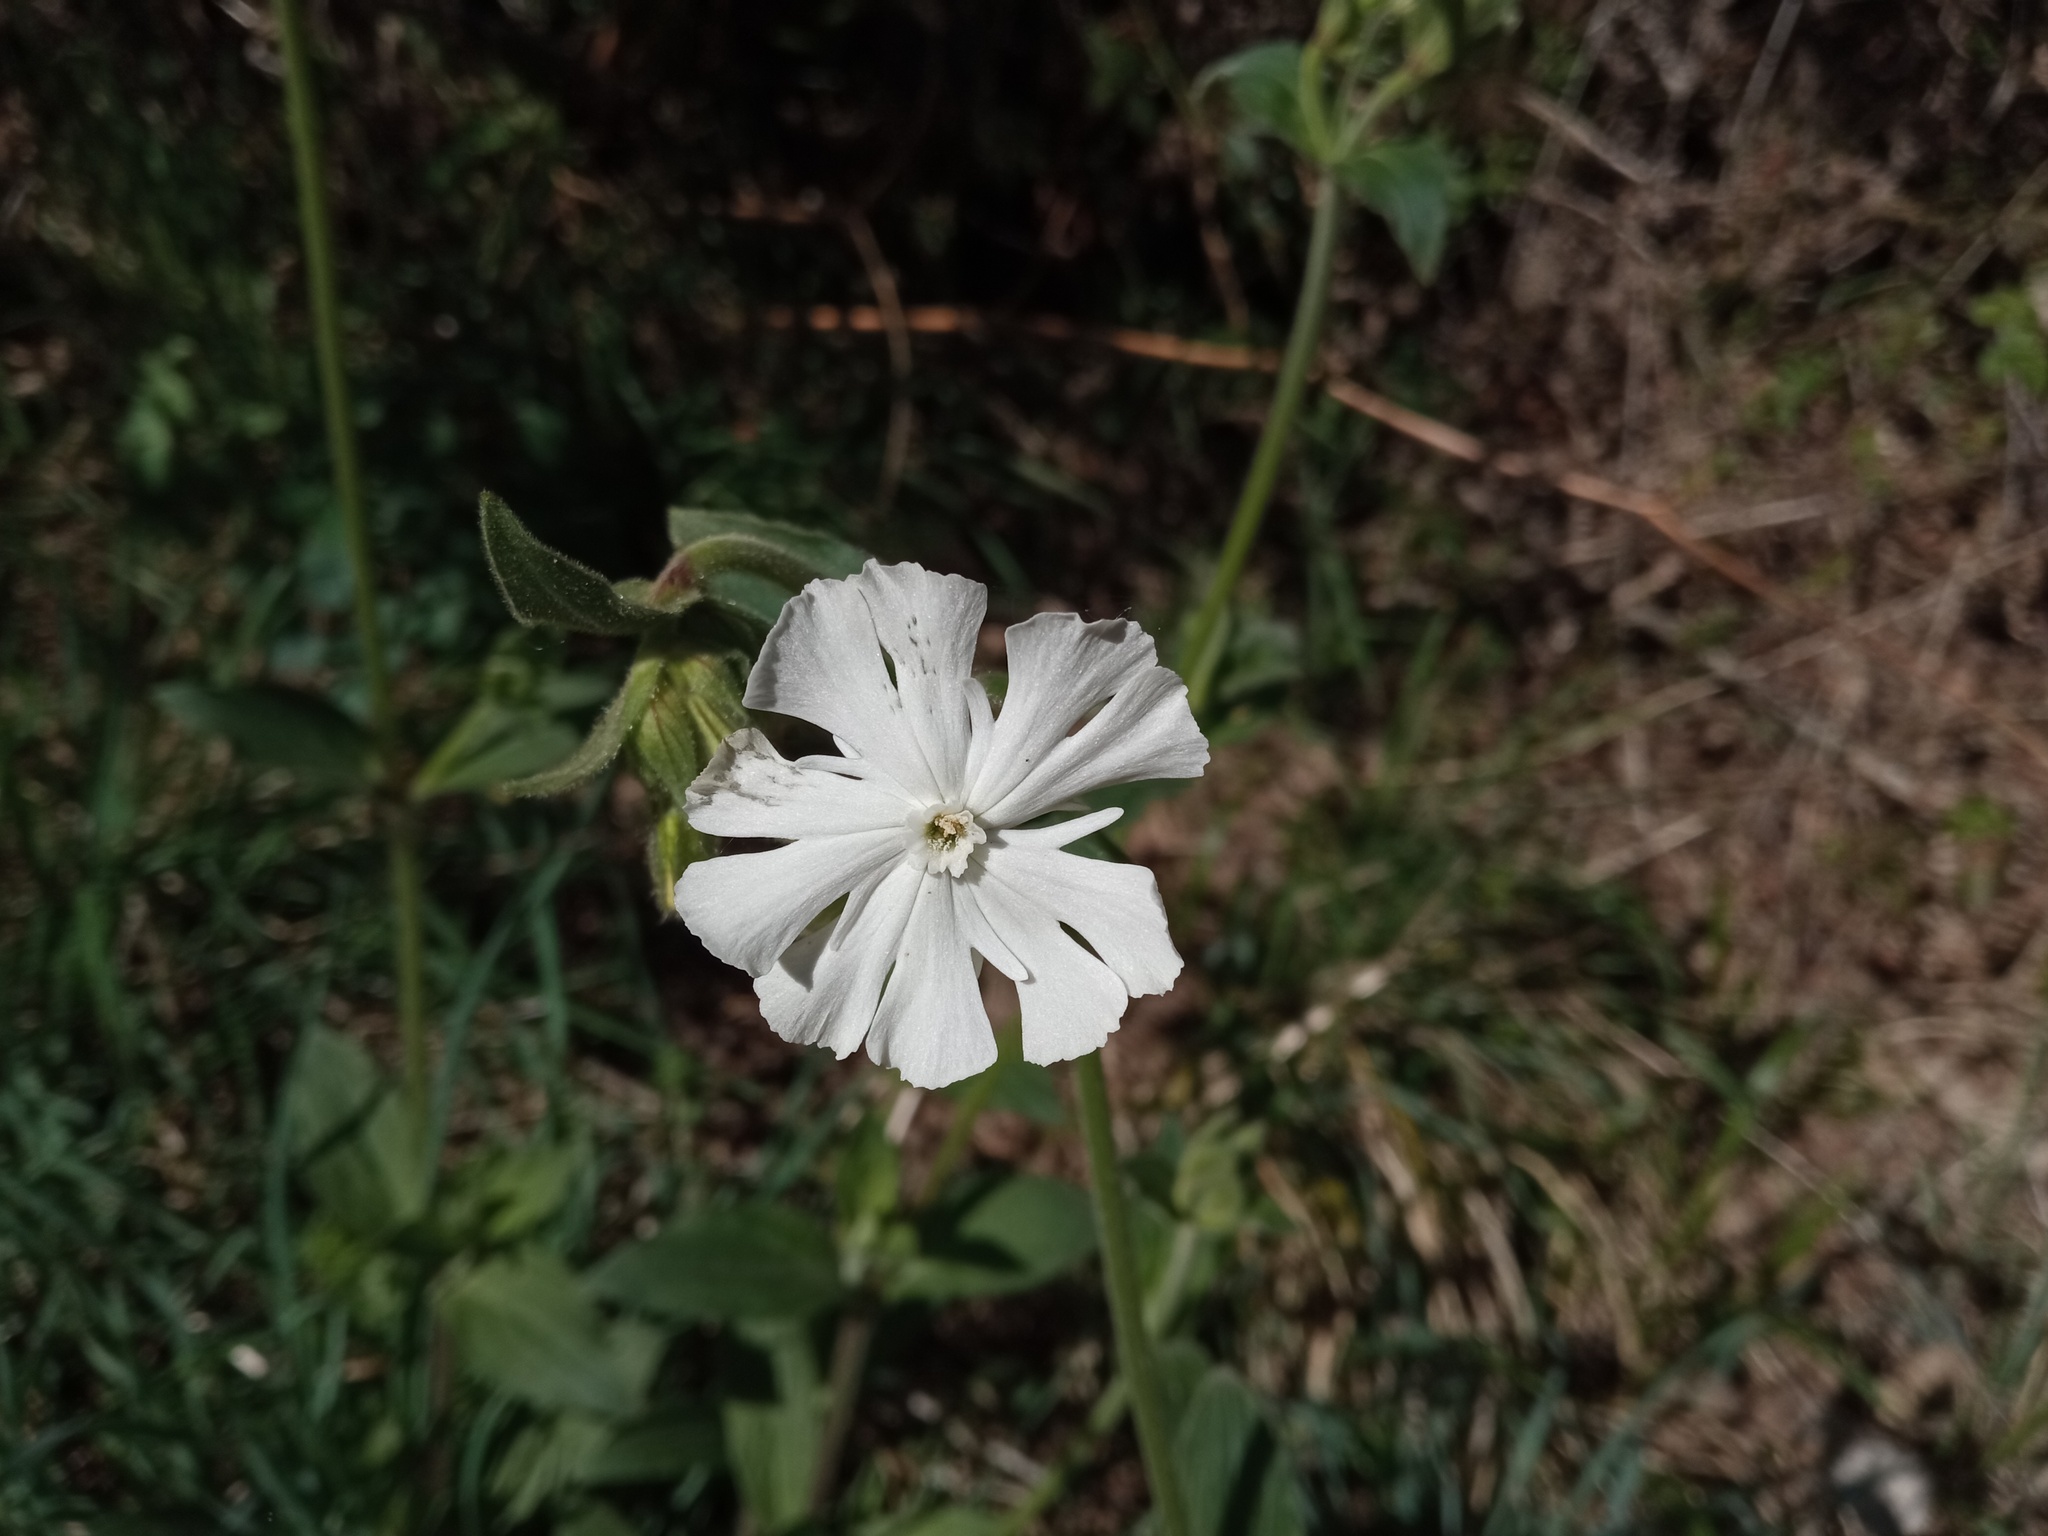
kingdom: Plantae
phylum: Tracheophyta
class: Magnoliopsida
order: Caryophyllales
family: Caryophyllaceae
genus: Silene
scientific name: Silene latifolia
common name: White campion
